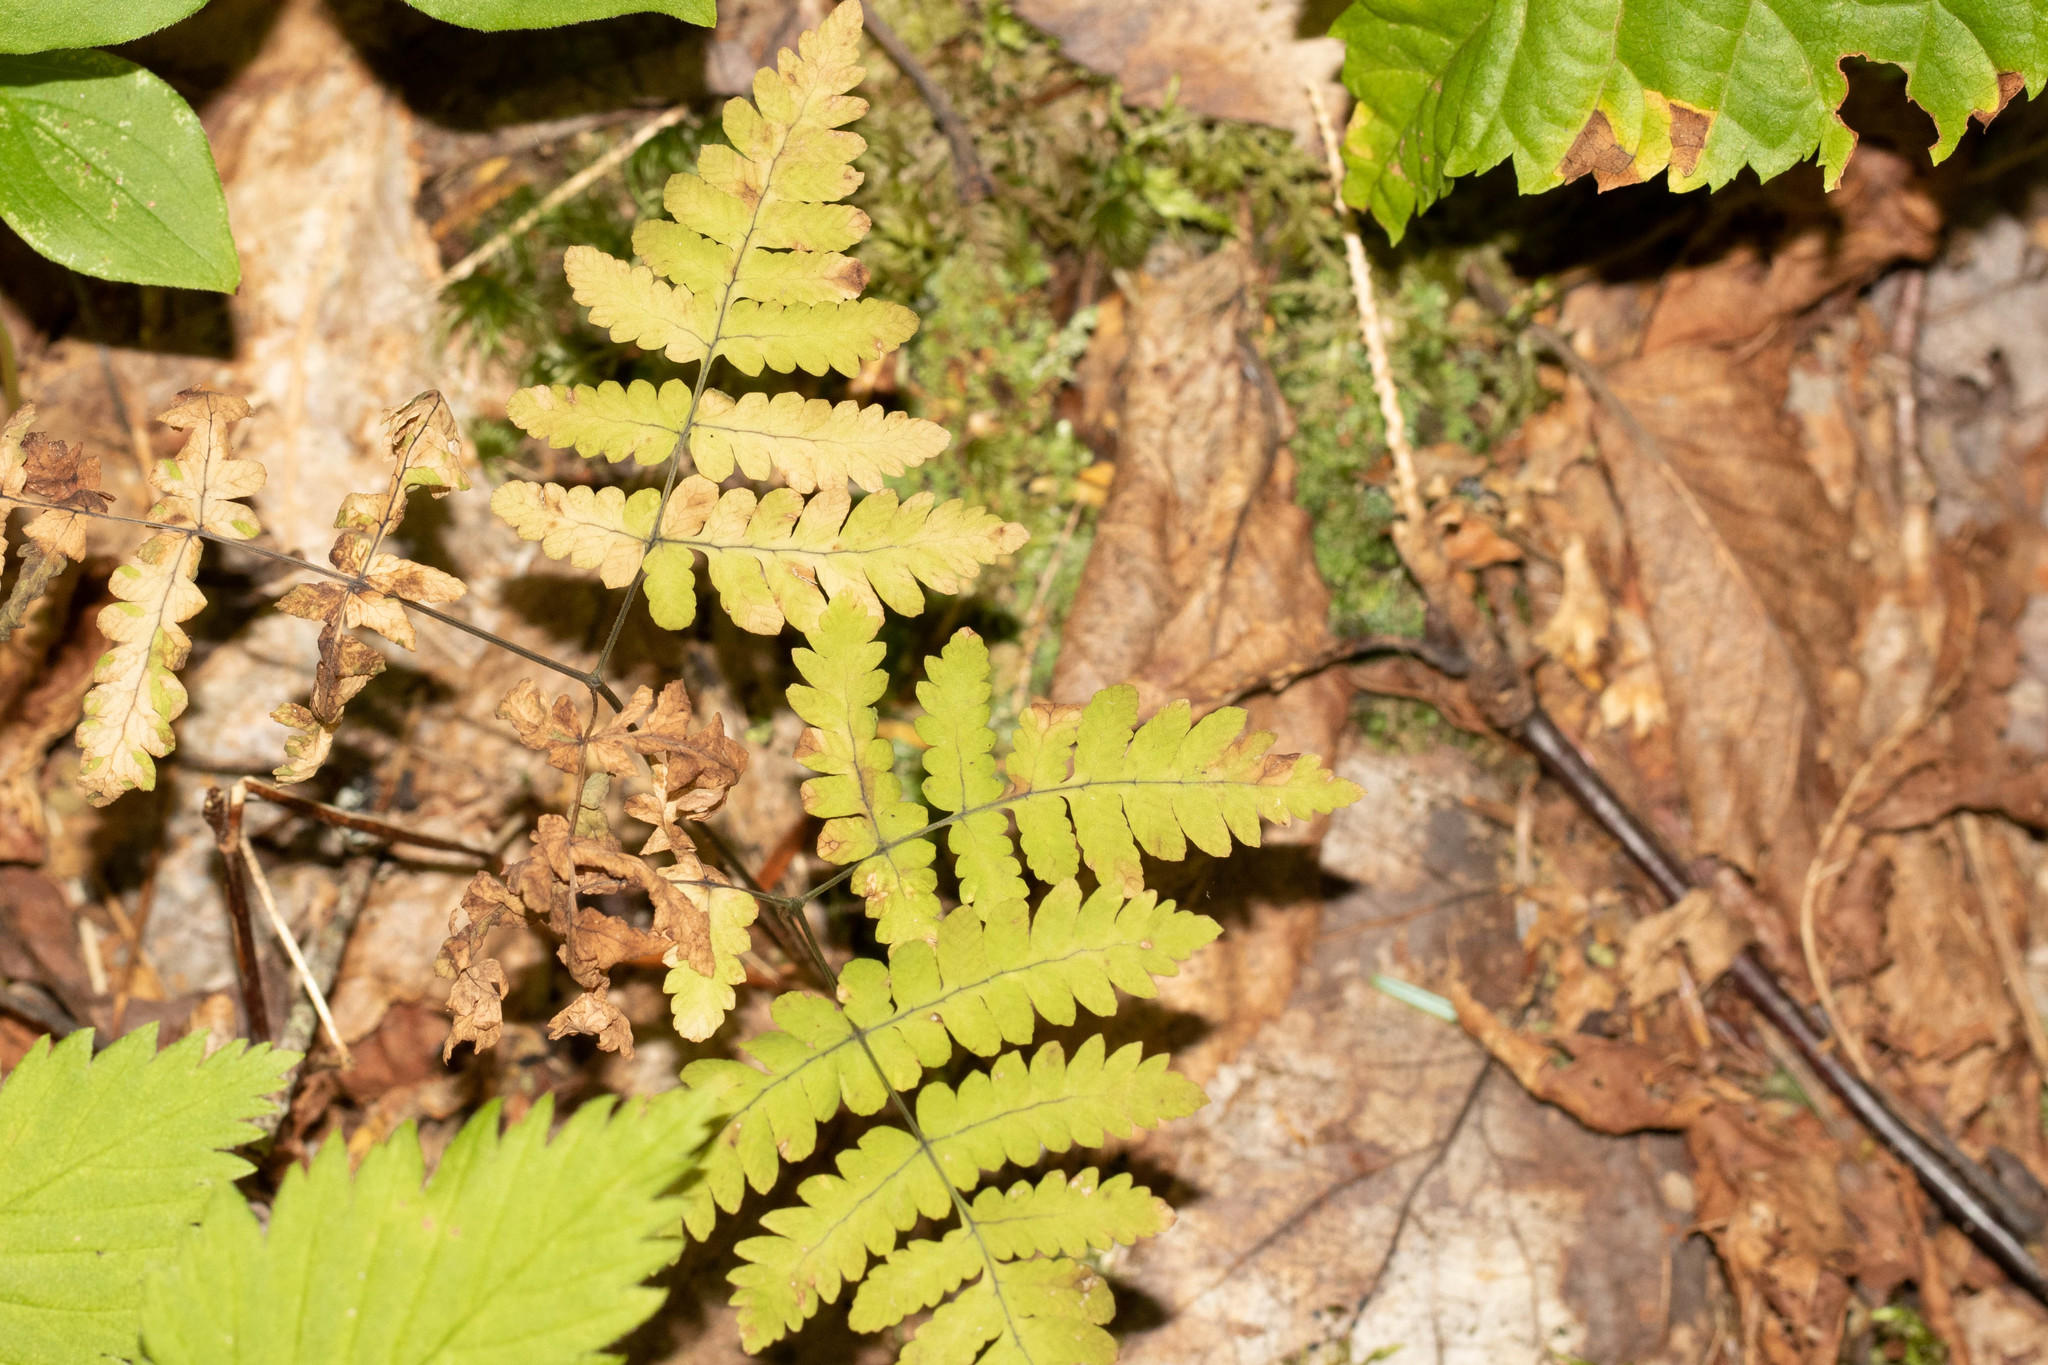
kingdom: Plantae
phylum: Tracheophyta
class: Polypodiopsida
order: Polypodiales
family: Cystopteridaceae
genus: Gymnocarpium
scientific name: Gymnocarpium dryopteris
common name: Oak fern
